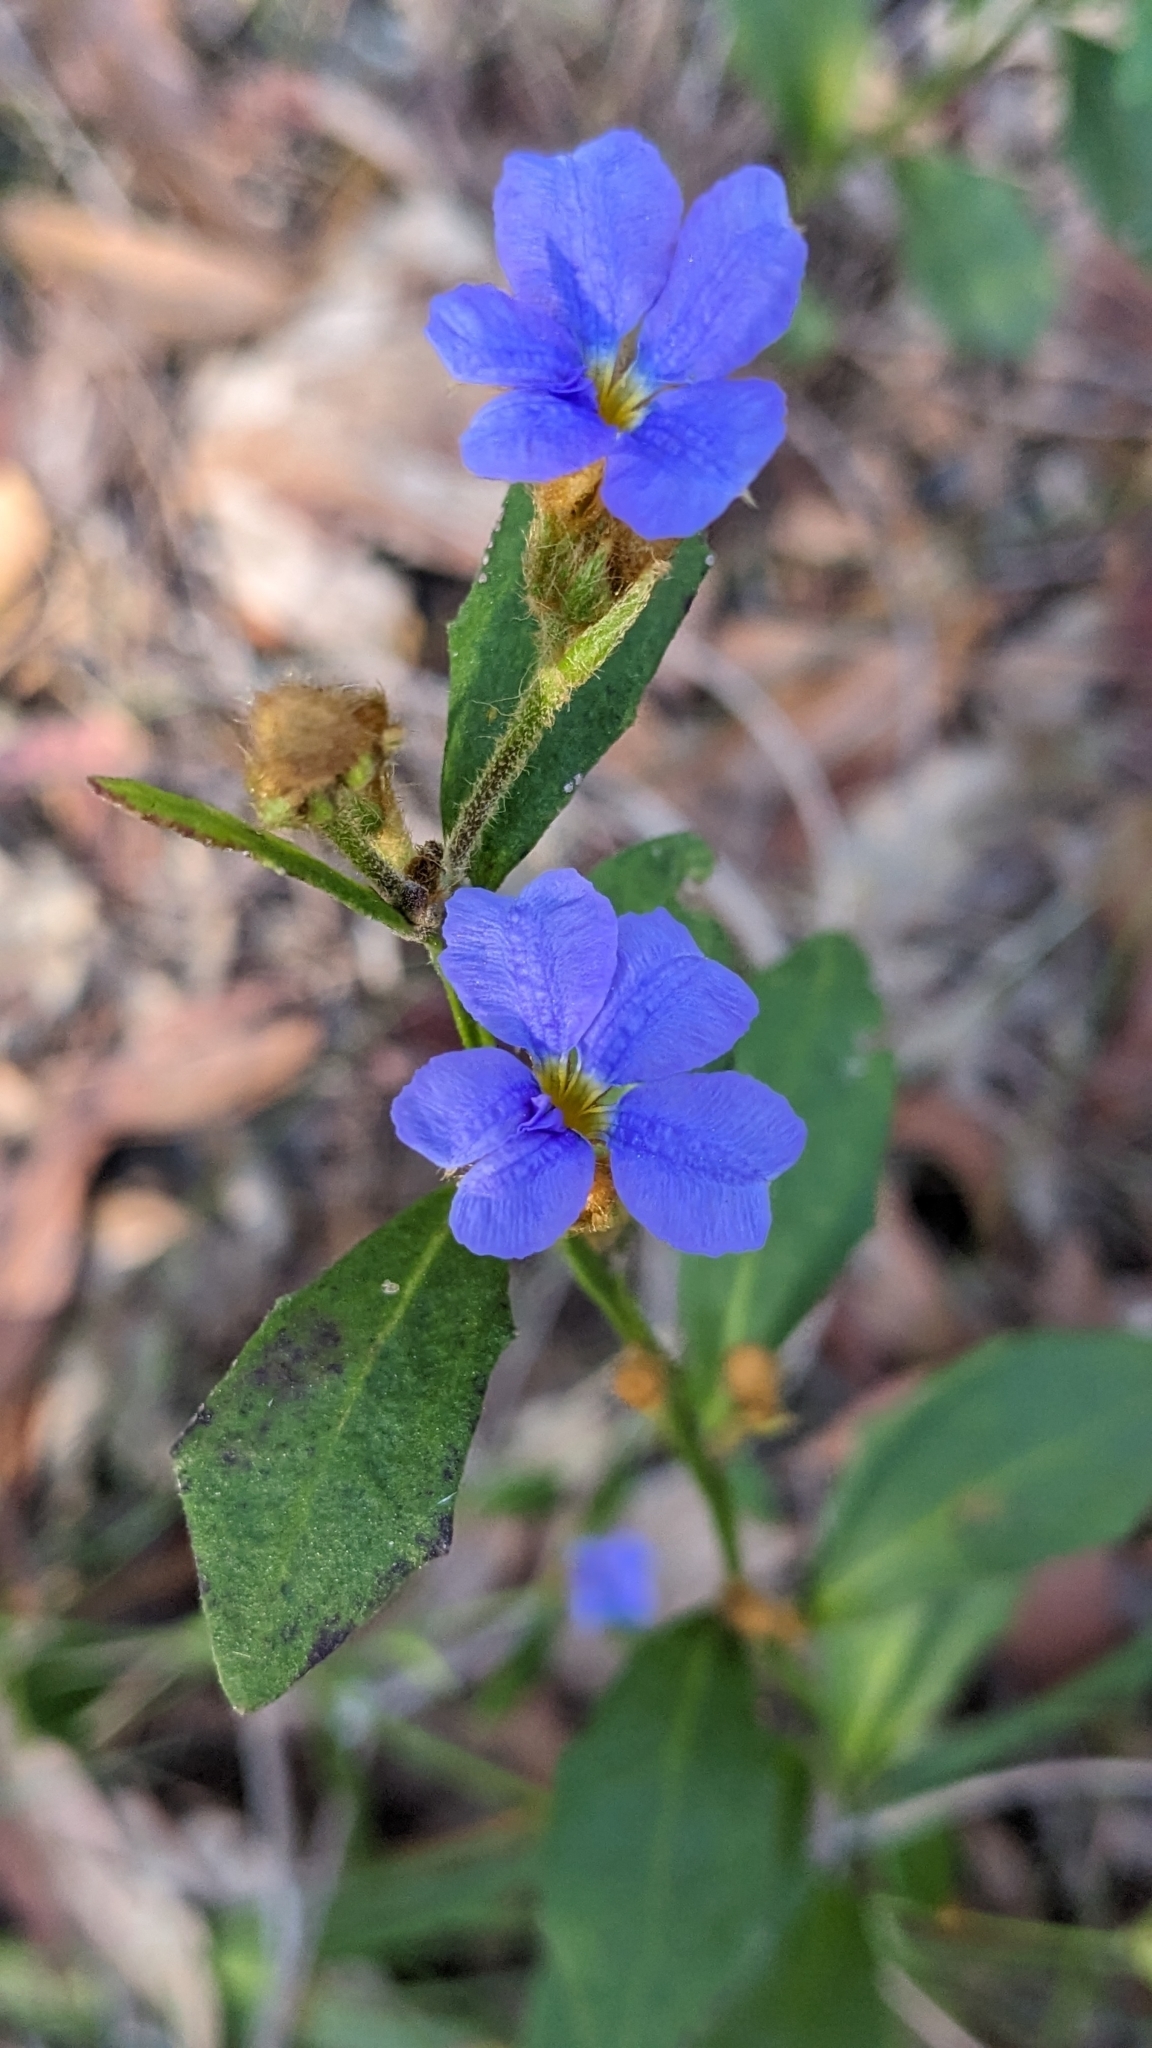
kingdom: Plantae
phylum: Tracheophyta
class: Magnoliopsida
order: Asterales
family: Goodeniaceae
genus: Dampiera
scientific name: Dampiera stricta
